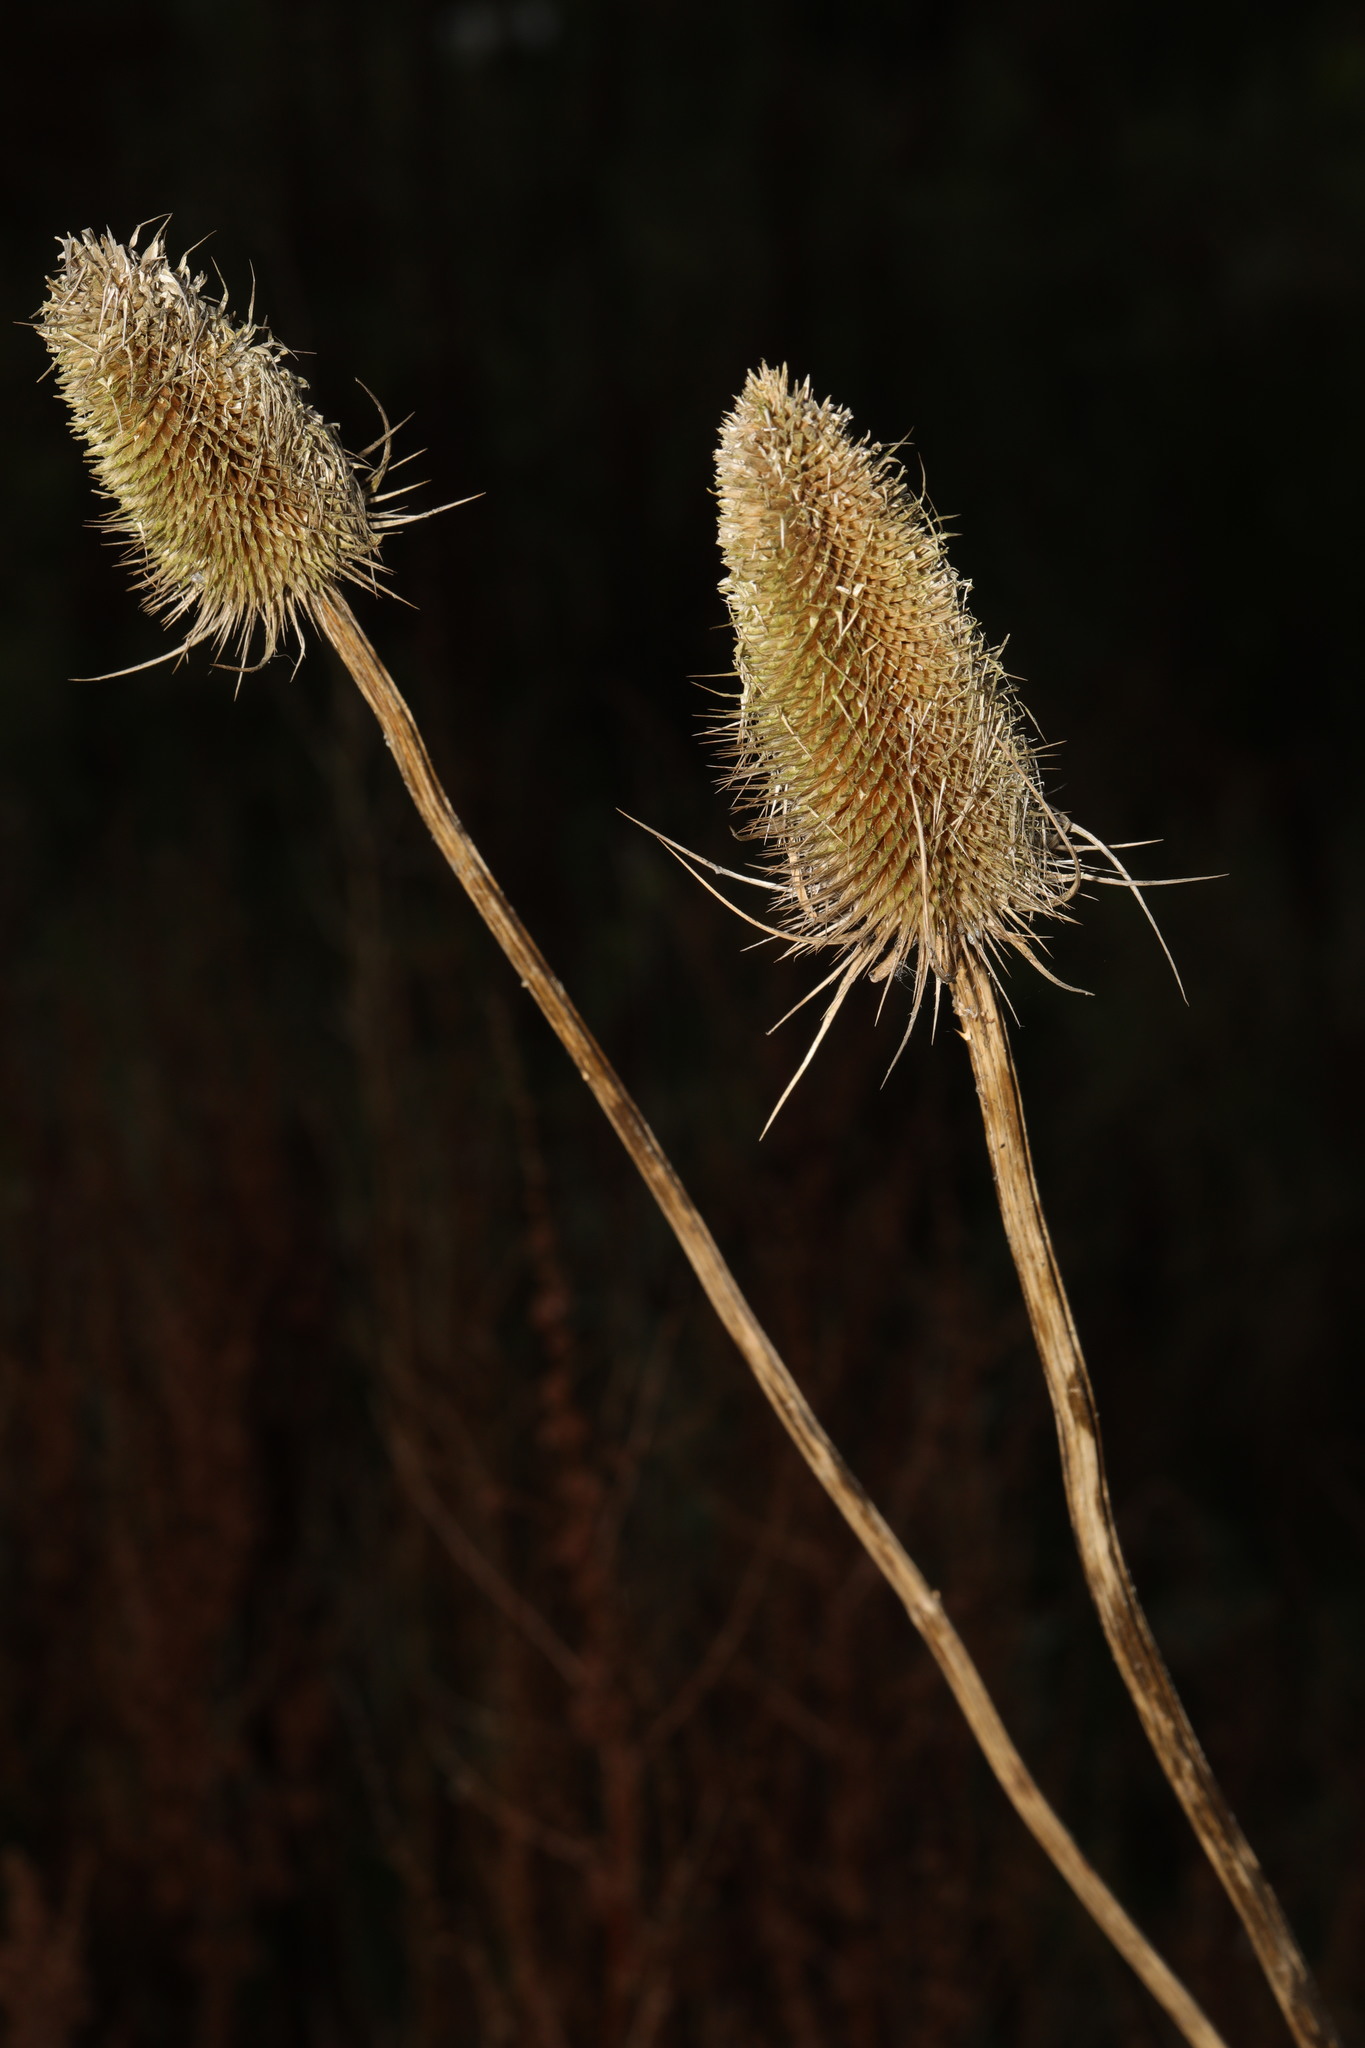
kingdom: Plantae
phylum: Tracheophyta
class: Magnoliopsida
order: Dipsacales
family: Caprifoliaceae
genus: Dipsacus
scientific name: Dipsacus fullonum
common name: Teasel
